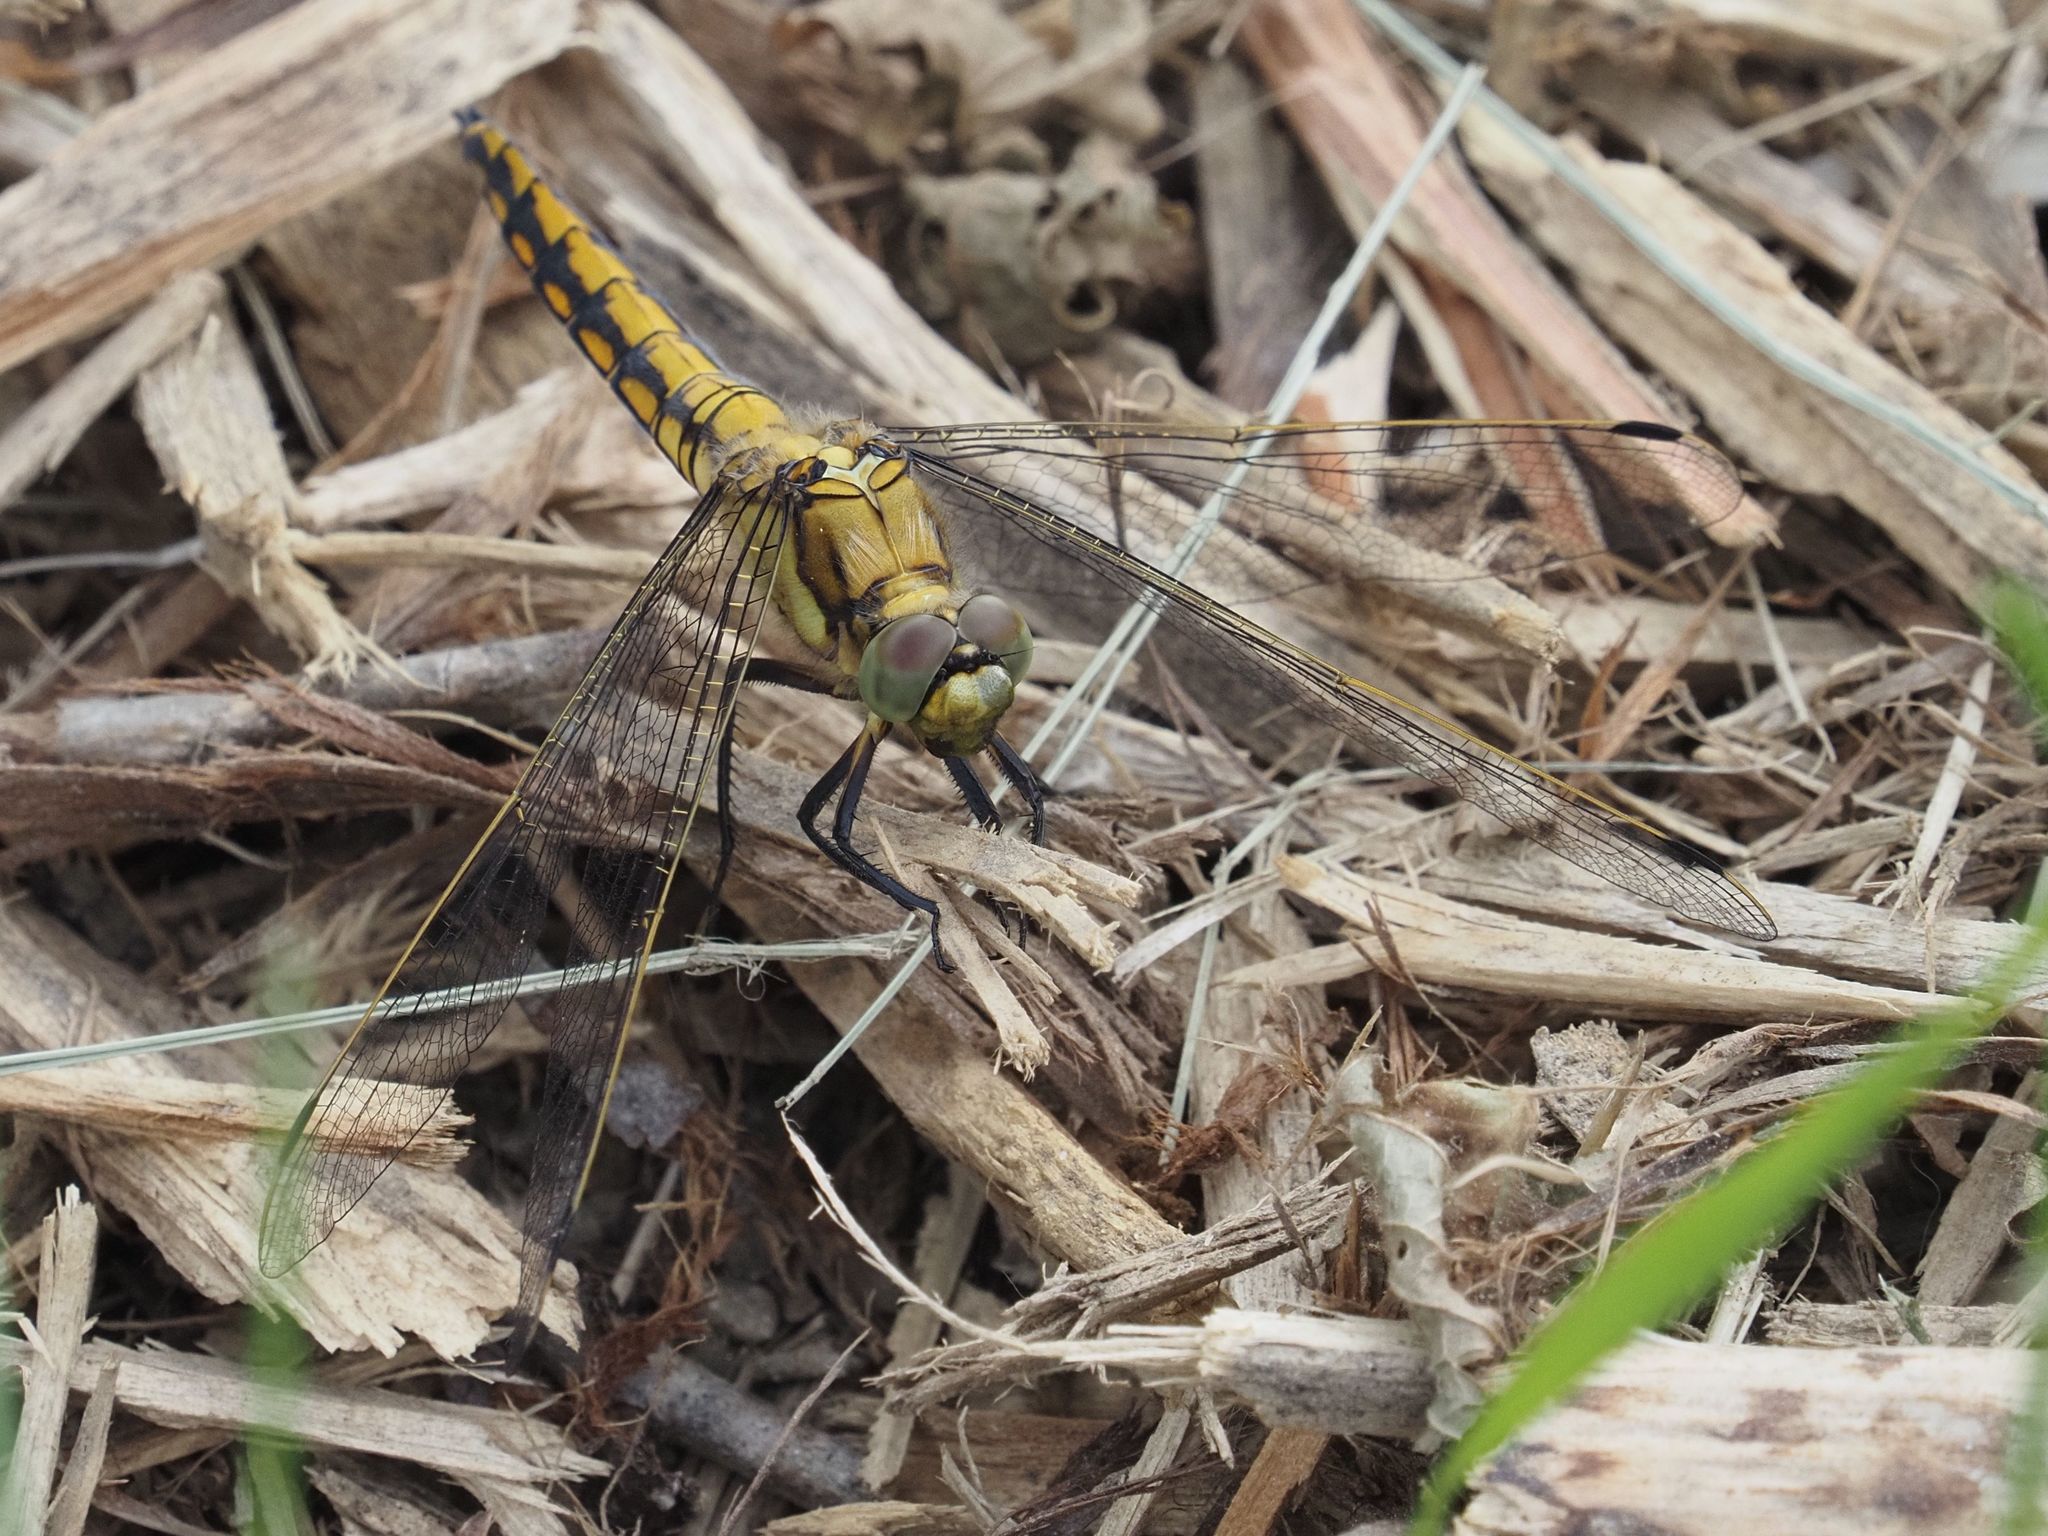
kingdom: Animalia
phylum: Arthropoda
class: Insecta
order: Odonata
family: Libellulidae
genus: Orthetrum
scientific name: Orthetrum cancellatum
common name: Black-tailed skimmer
